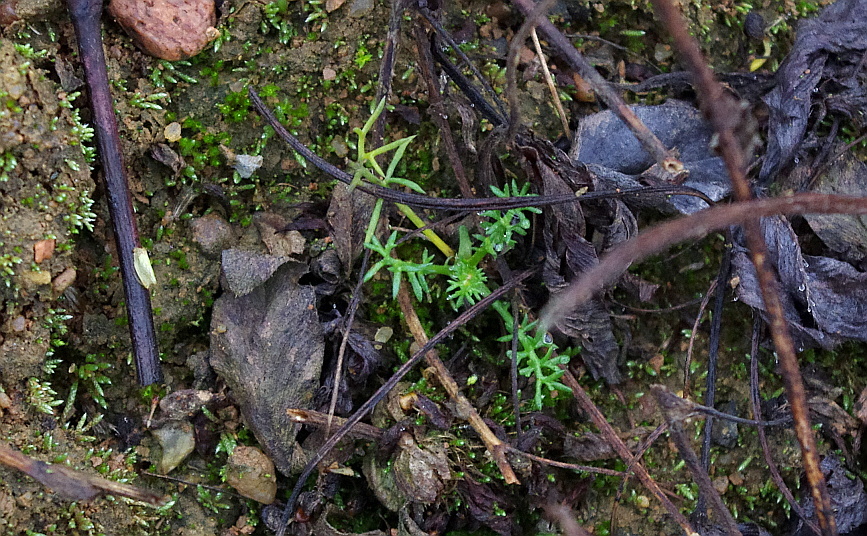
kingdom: Plantae
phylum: Tracheophyta
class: Magnoliopsida
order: Asterales
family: Asteraceae
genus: Tripleurospermum
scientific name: Tripleurospermum inodorum
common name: Scentless mayweed
